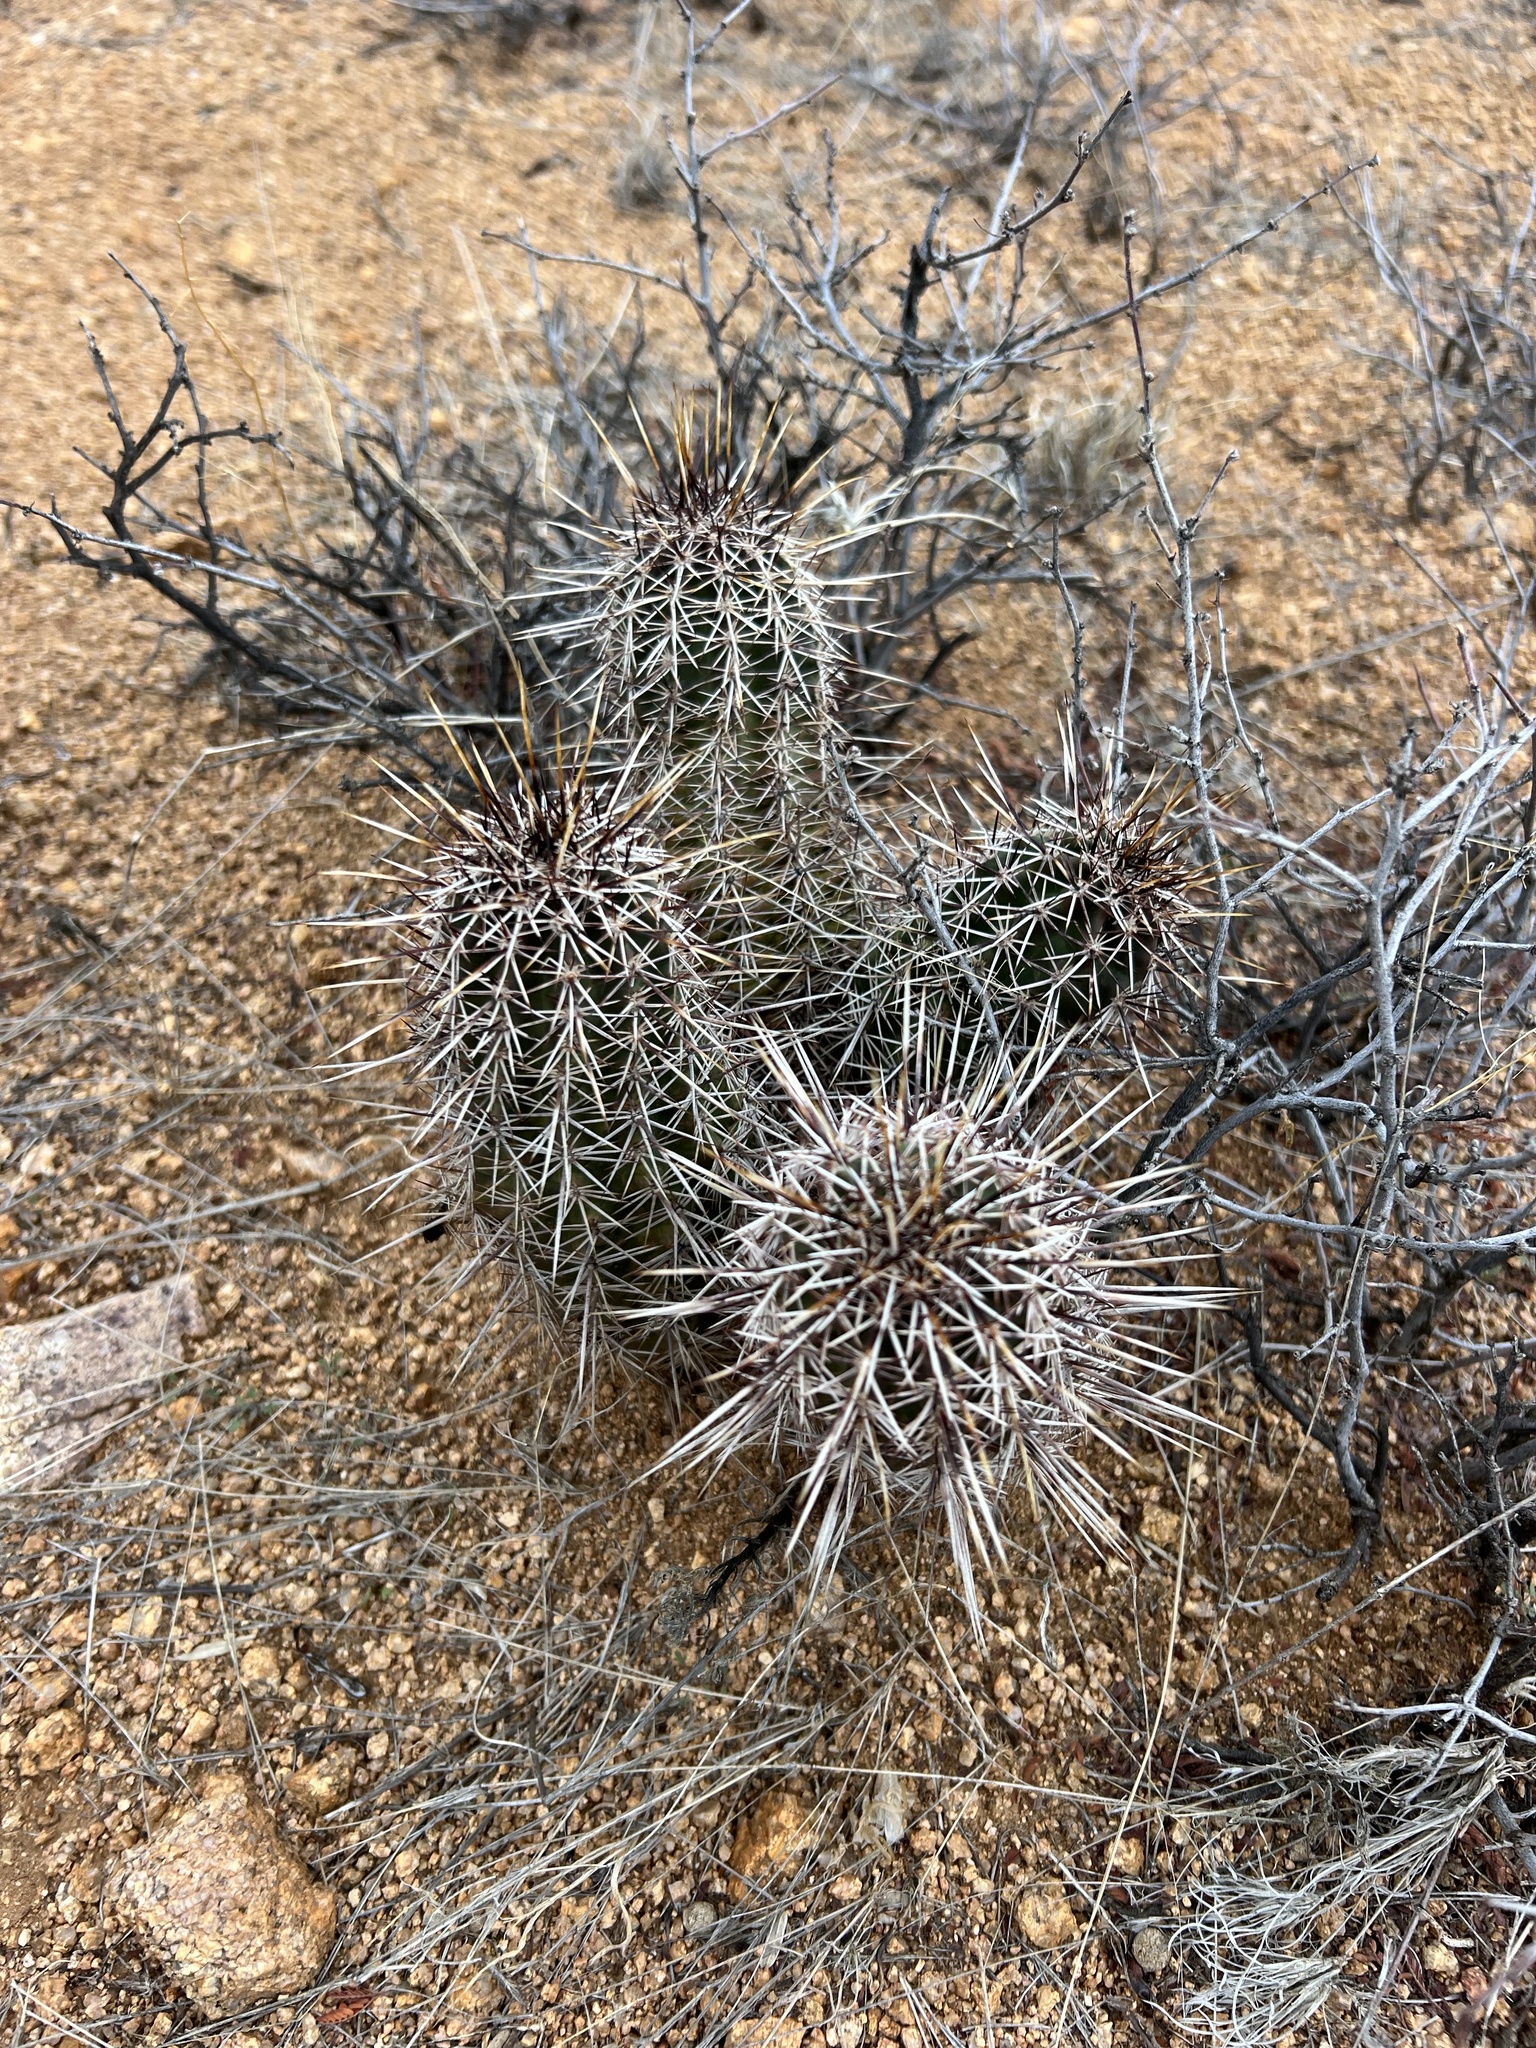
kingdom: Plantae
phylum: Tracheophyta
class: Magnoliopsida
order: Caryophyllales
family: Cactaceae
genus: Echinocereus
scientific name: Echinocereus fasciculatus
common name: Bundle hedgehog
